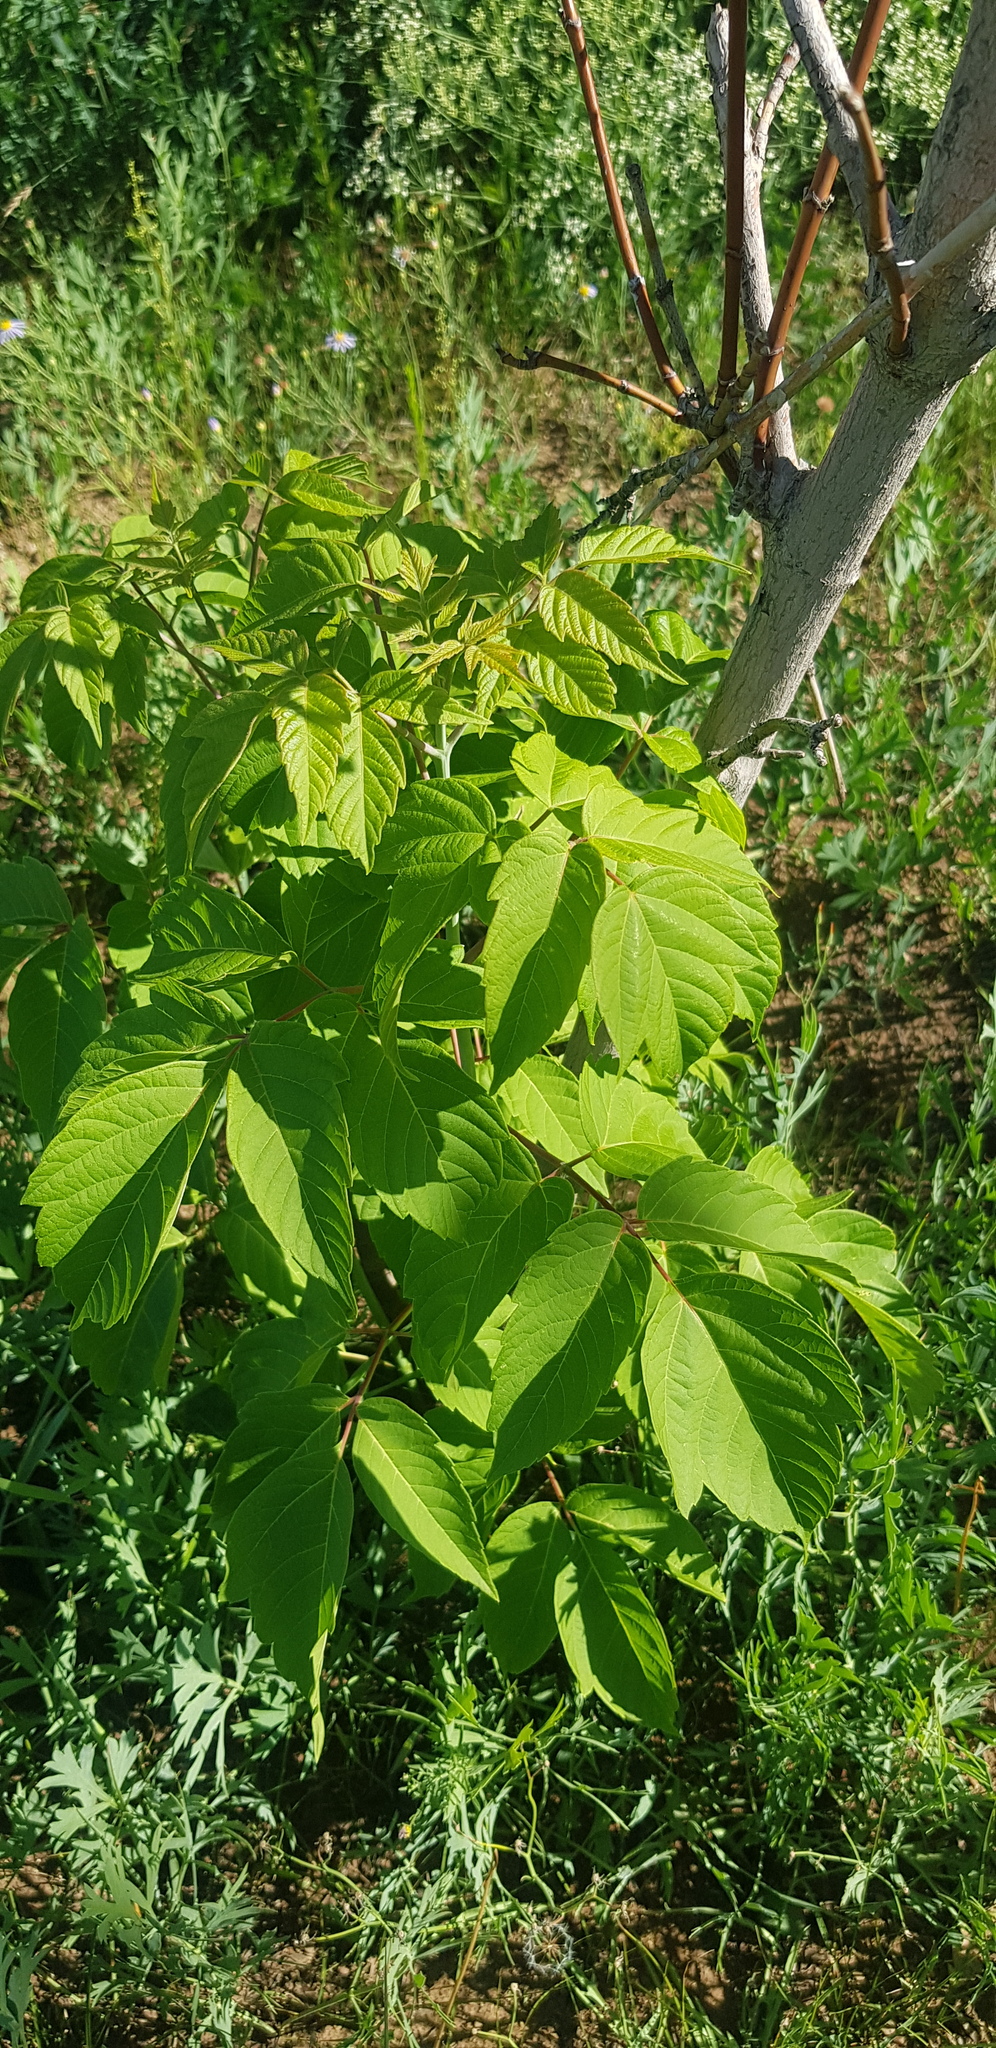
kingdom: Plantae
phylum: Tracheophyta
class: Magnoliopsida
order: Sapindales
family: Sapindaceae
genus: Acer
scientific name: Acer negundo
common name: Ashleaf maple
